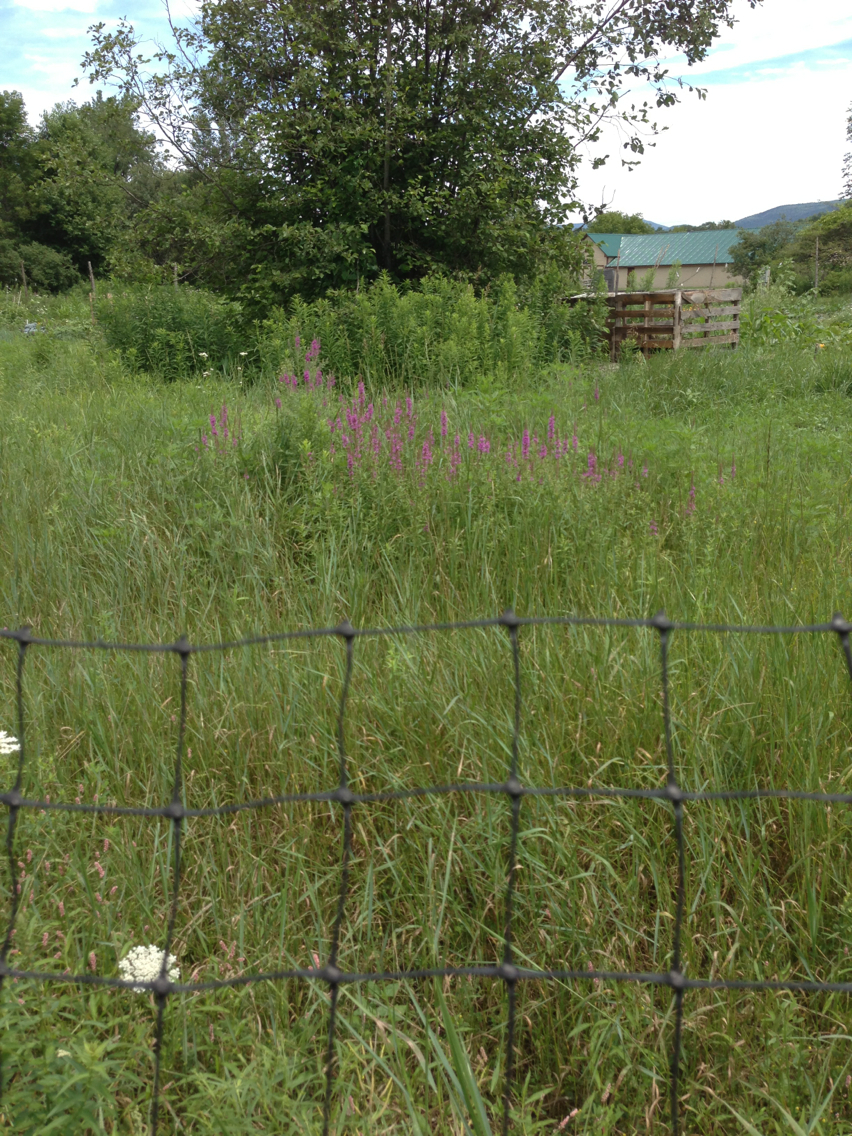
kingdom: Plantae
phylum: Tracheophyta
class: Magnoliopsida
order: Myrtales
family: Lythraceae
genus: Lythrum
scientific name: Lythrum salicaria
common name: Purple loosestrife
